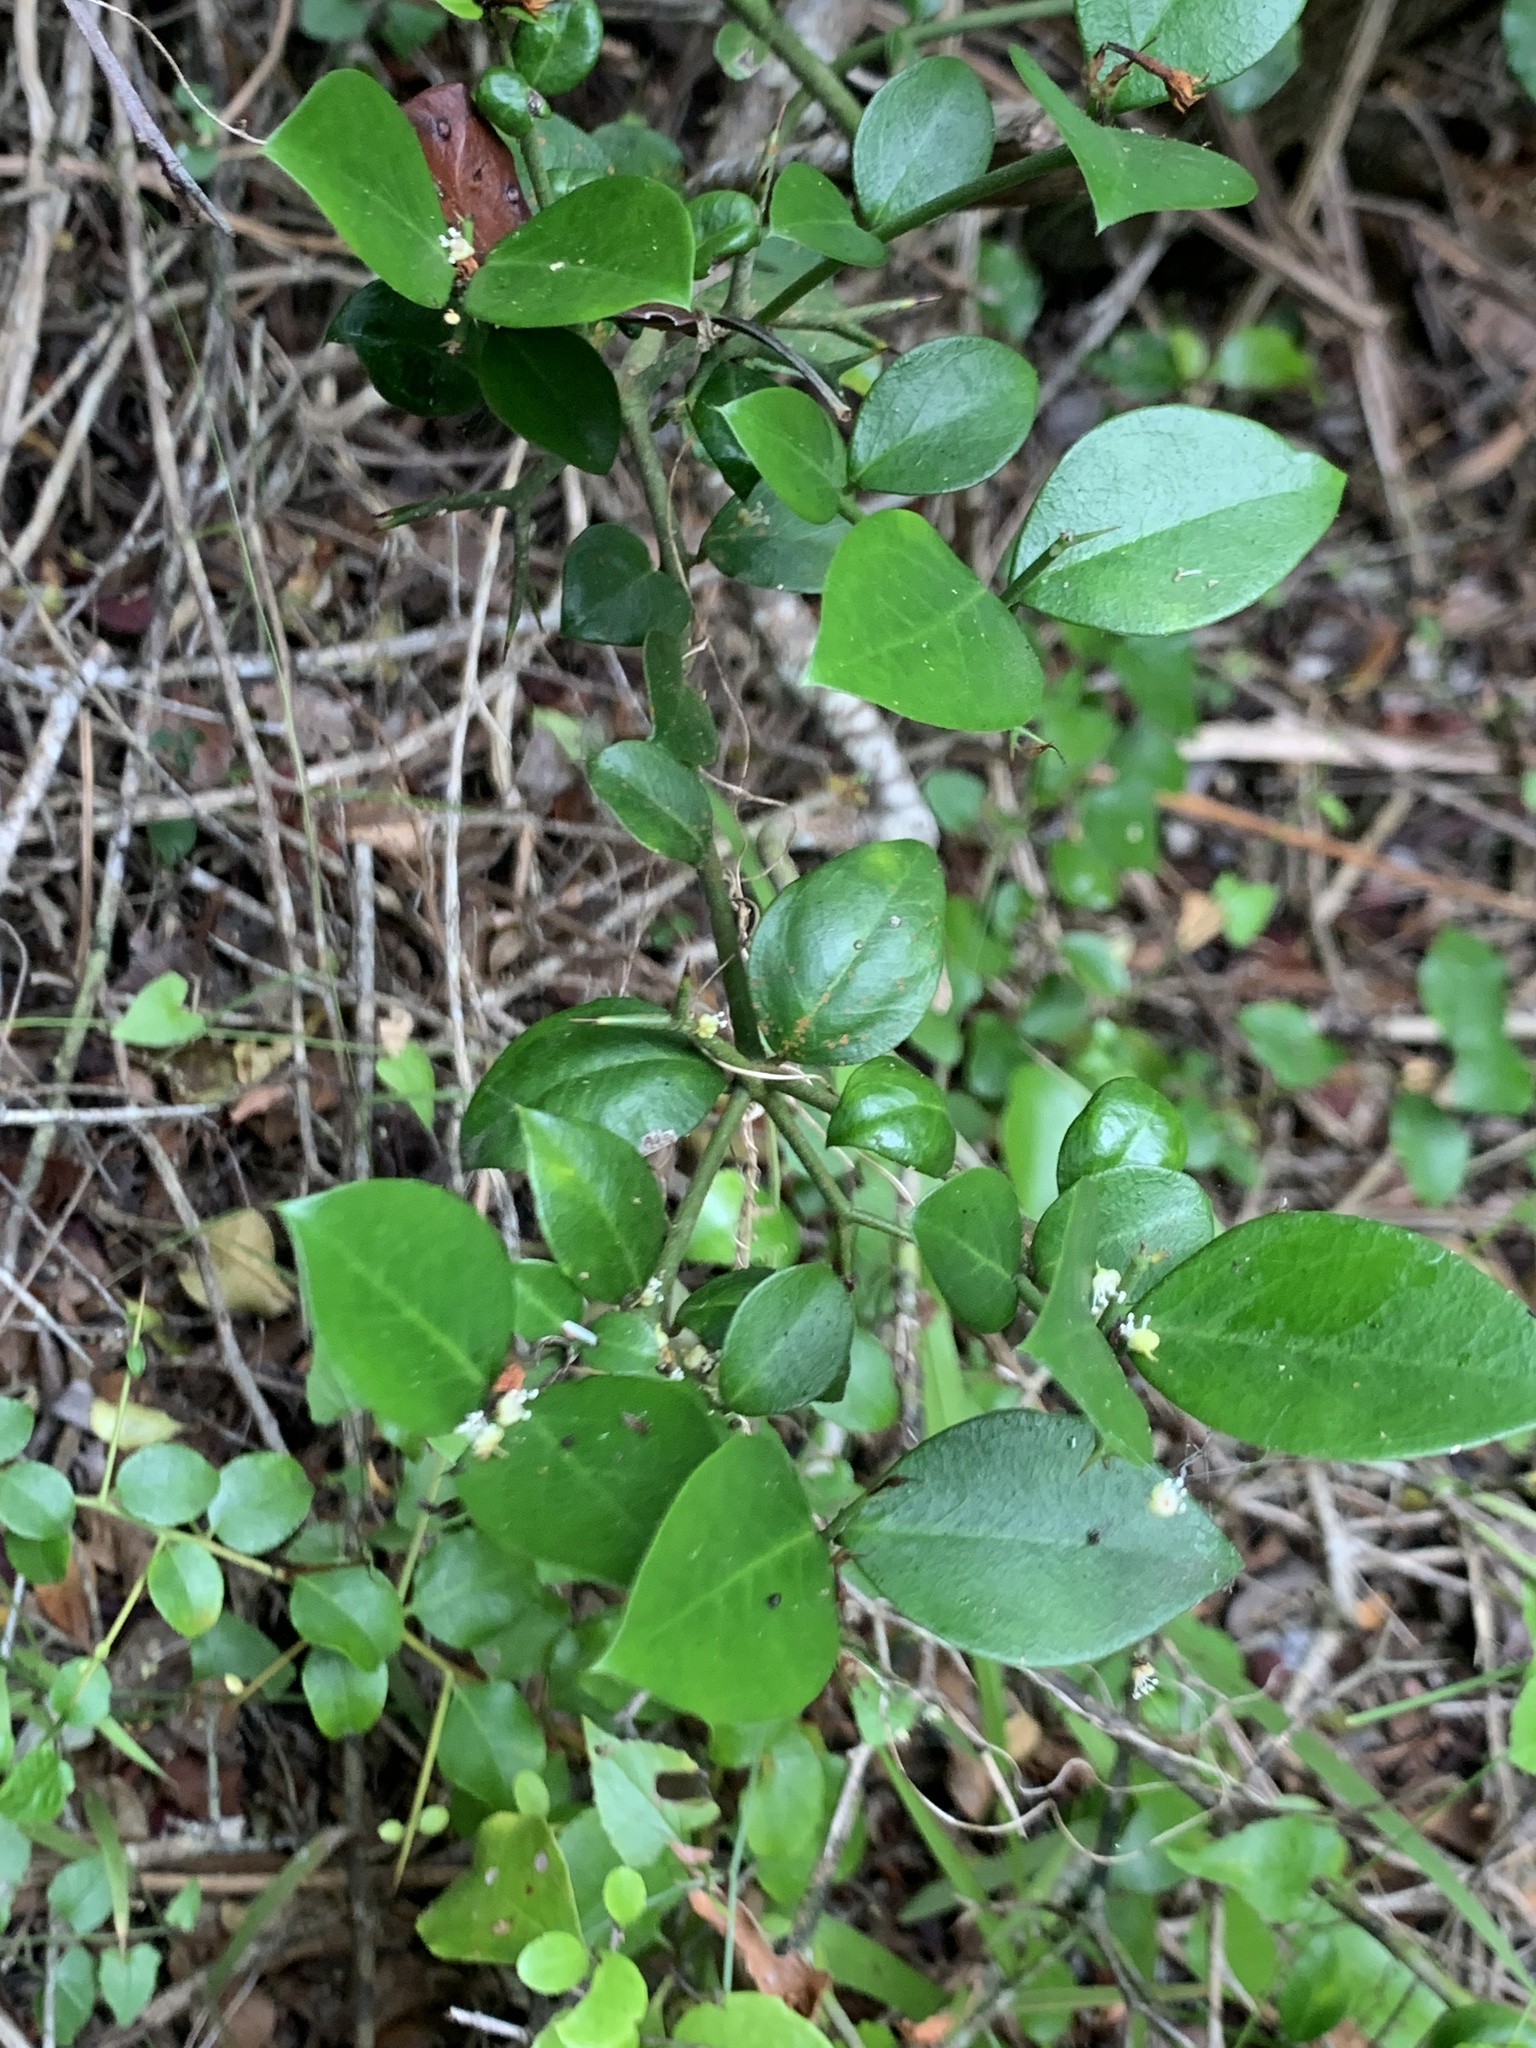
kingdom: Plantae
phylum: Tracheophyta
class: Magnoliopsida
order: Gentianales
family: Apocynaceae
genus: Carissa
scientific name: Carissa bispinosa
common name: Forest num-num
